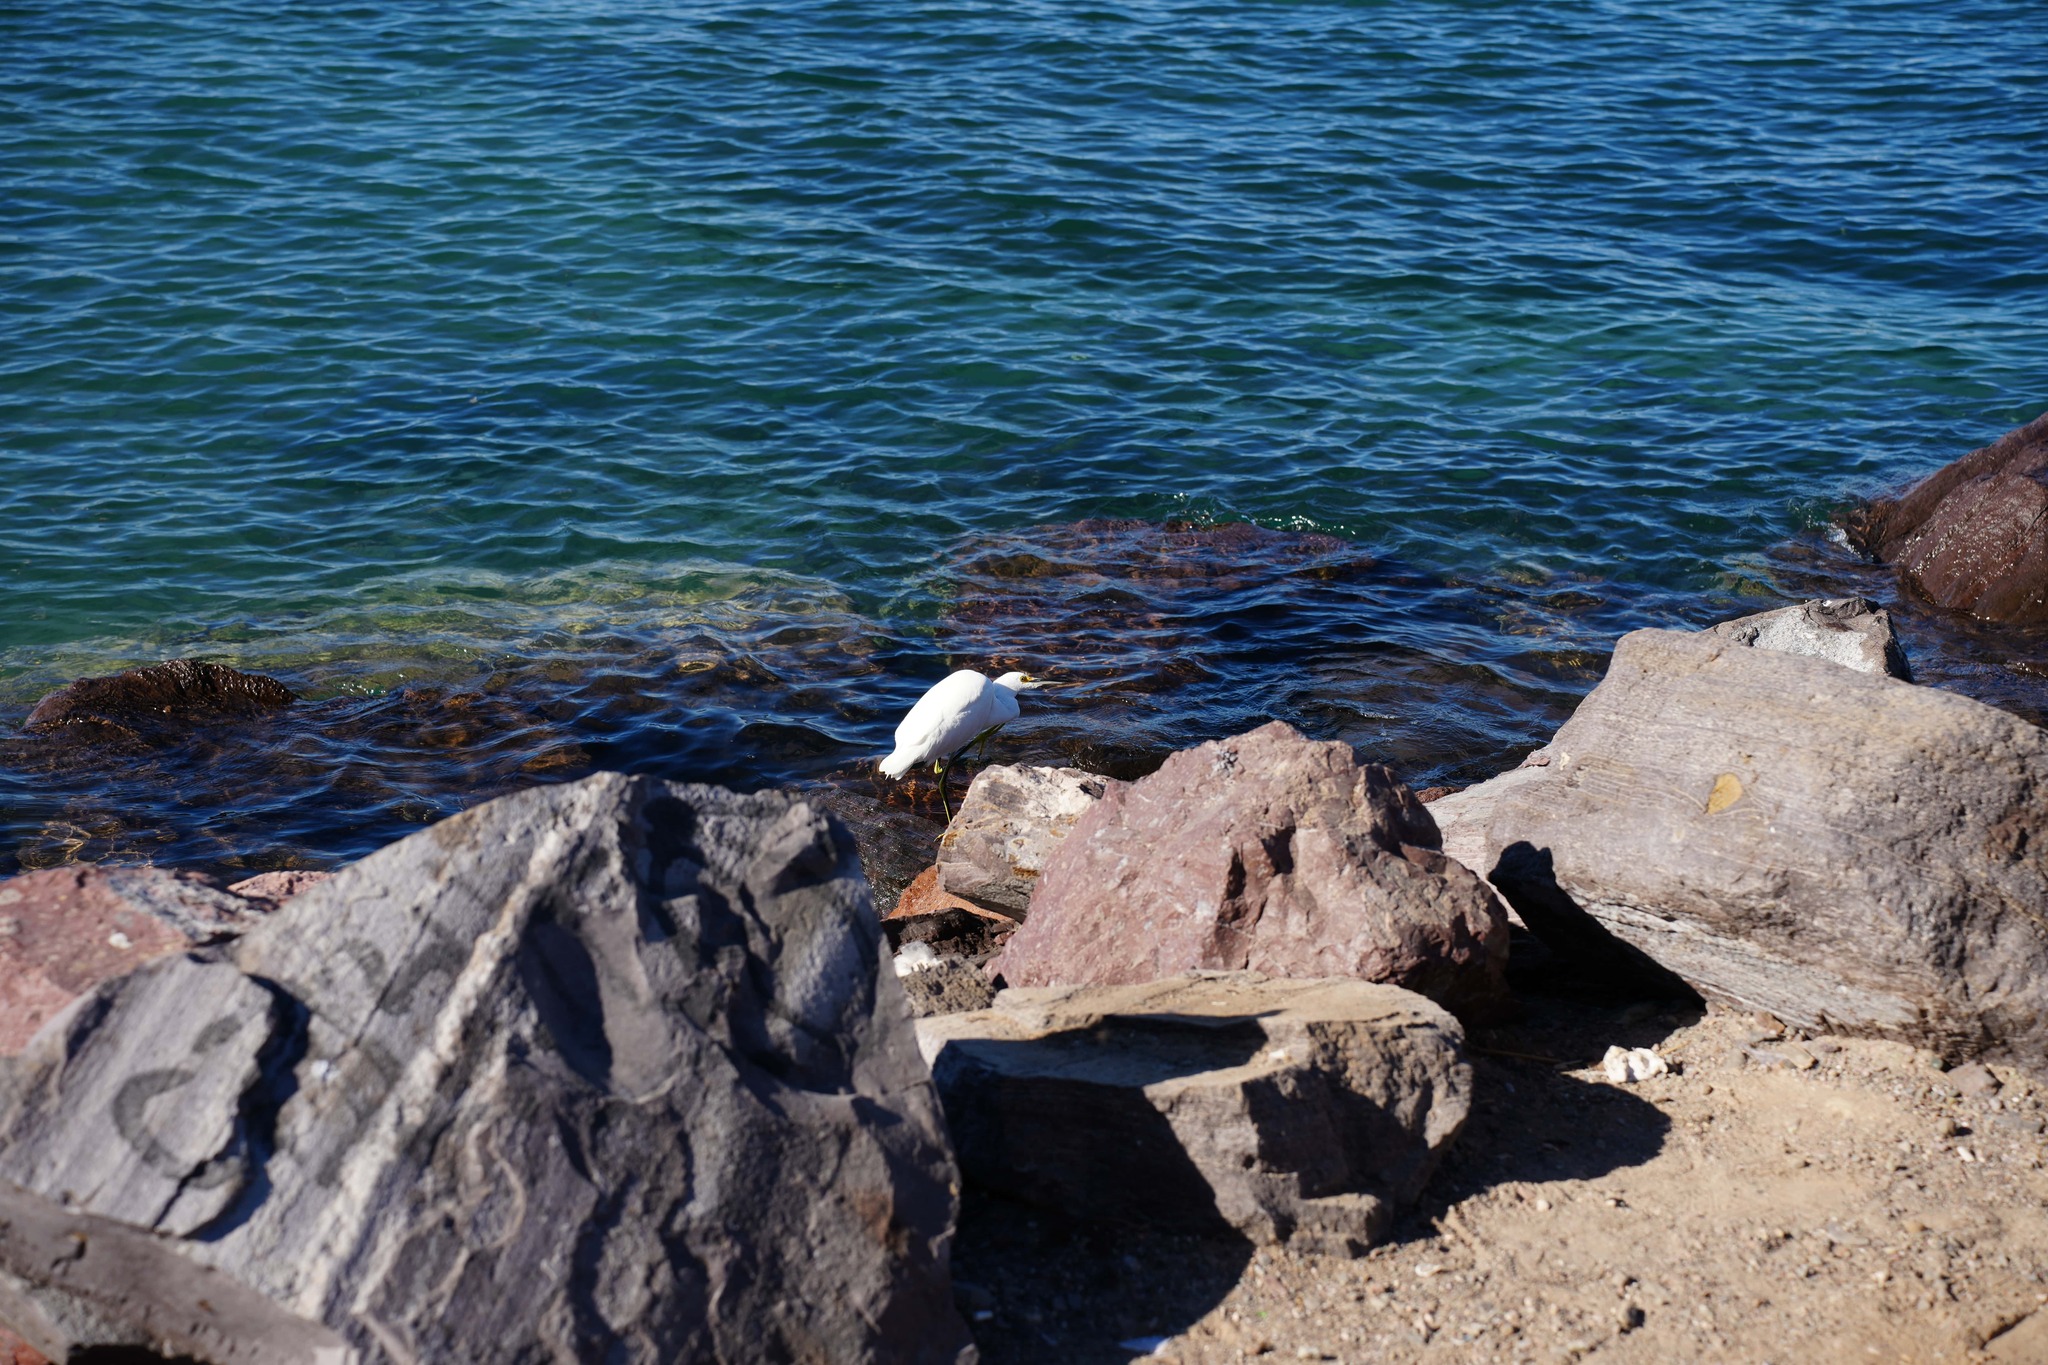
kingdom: Animalia
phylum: Chordata
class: Aves
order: Pelecaniformes
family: Ardeidae
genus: Egretta
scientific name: Egretta thula
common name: Snowy egret
